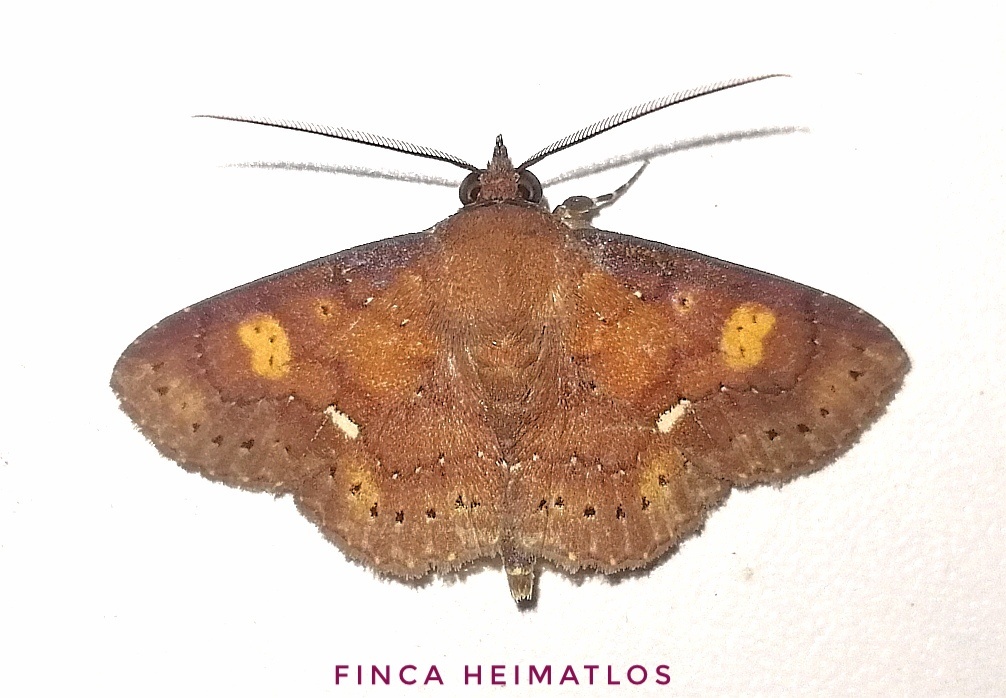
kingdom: Animalia
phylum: Arthropoda
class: Insecta
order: Lepidoptera
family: Erebidae
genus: Manbuta
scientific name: Manbuta Triommatodes aberrans
